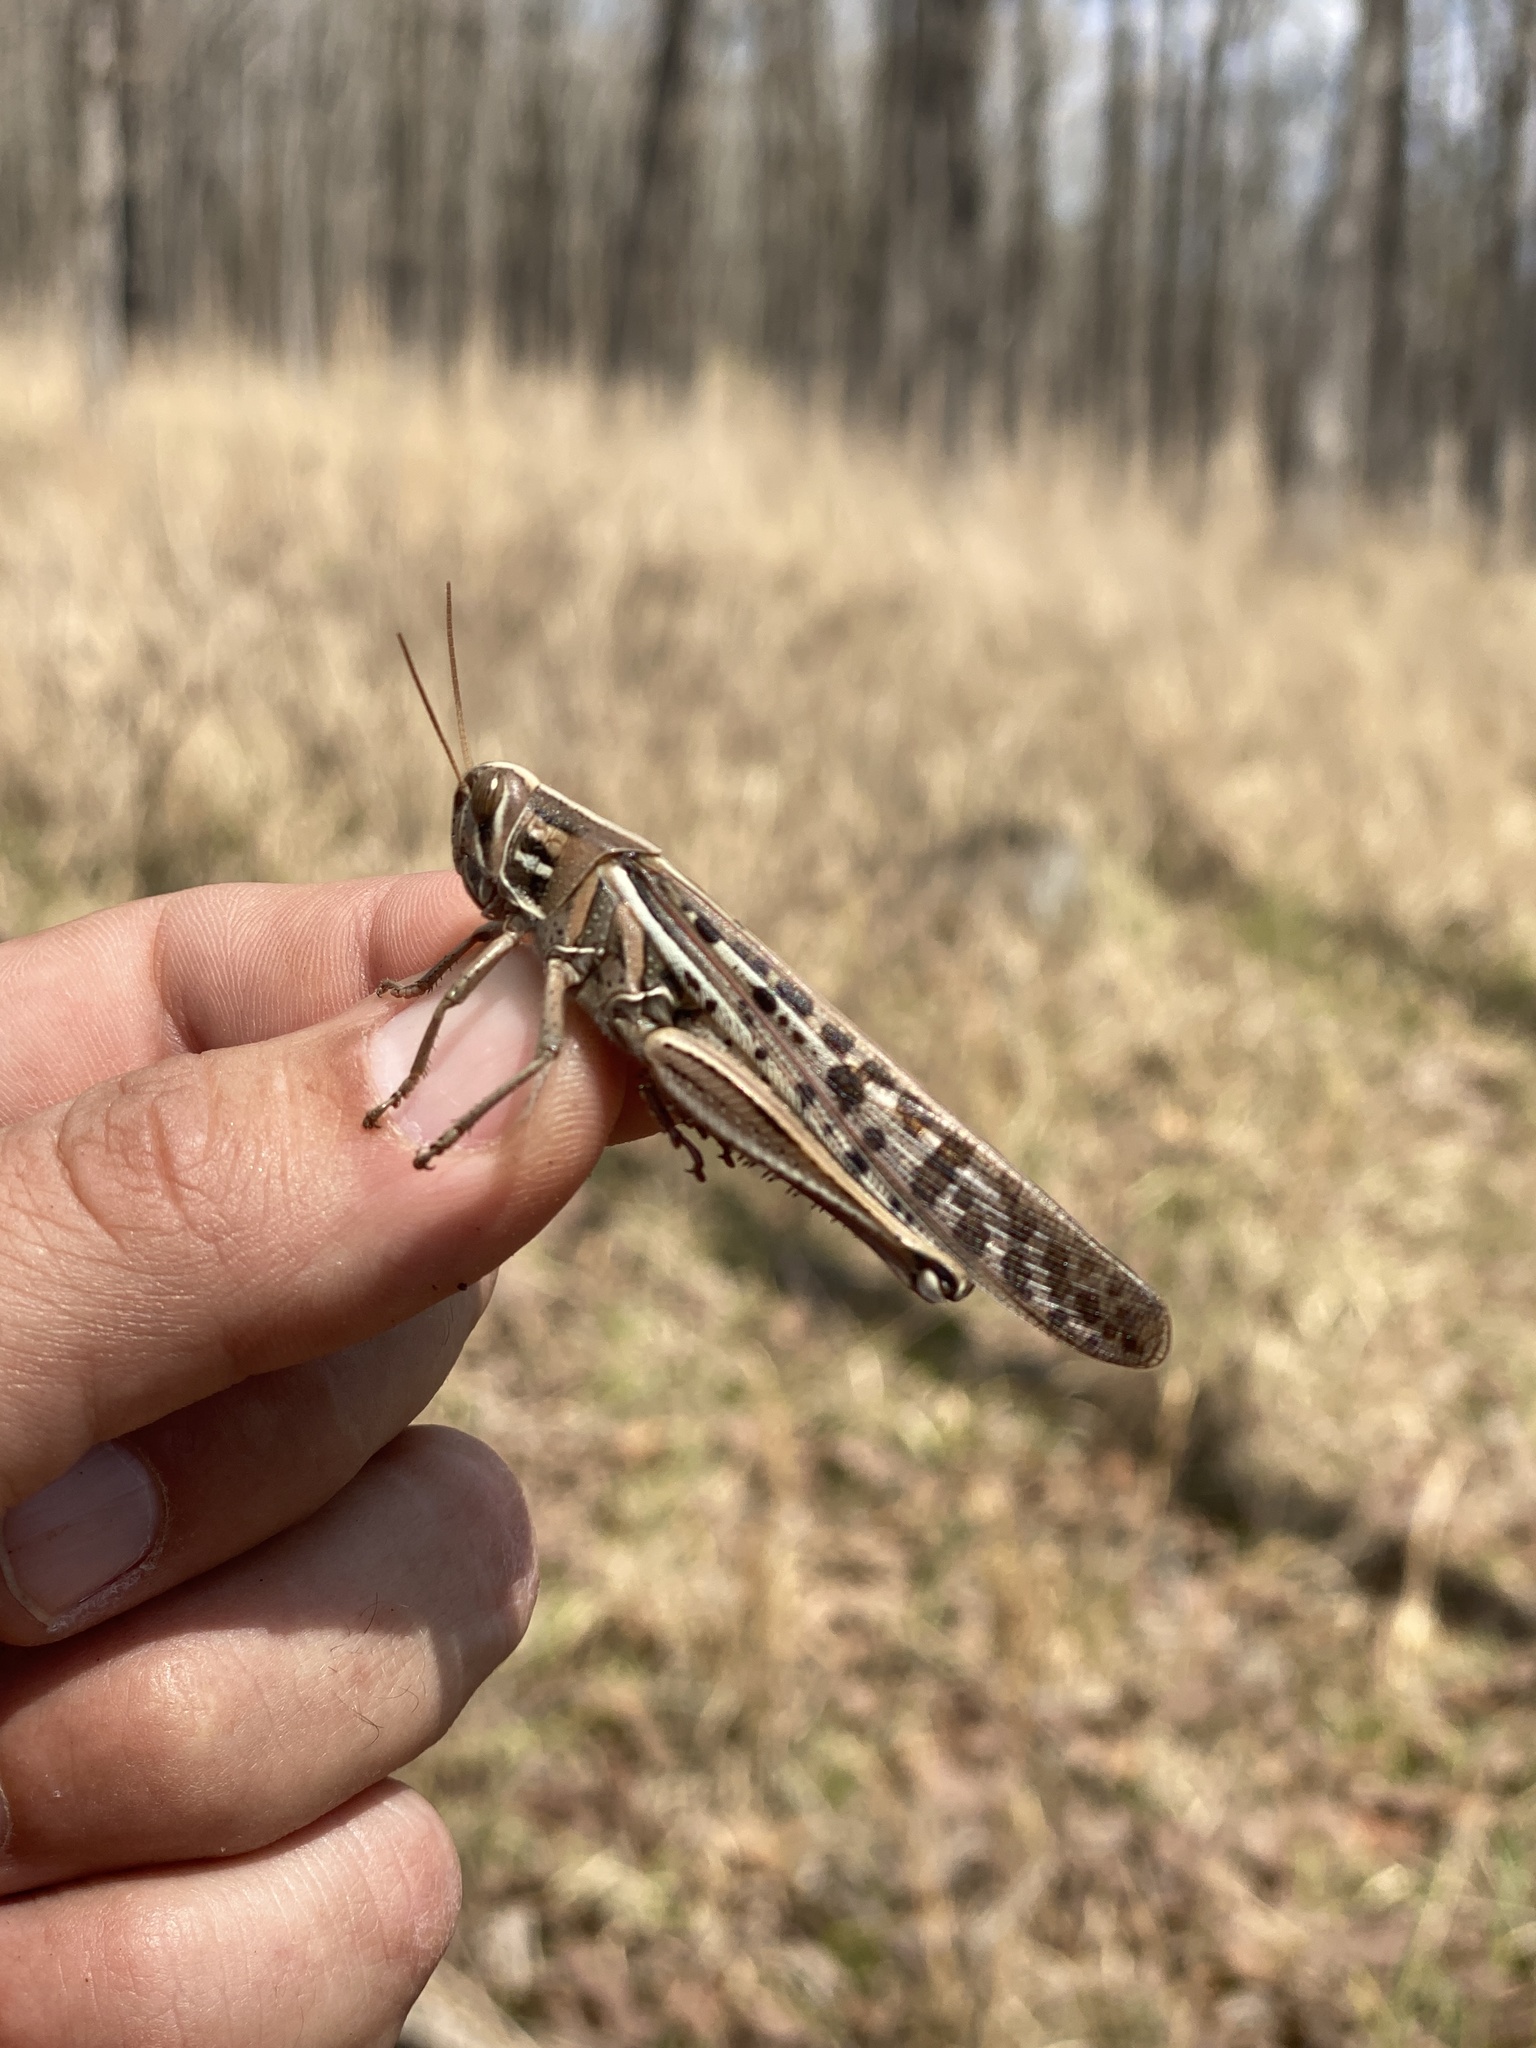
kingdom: Animalia
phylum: Arthropoda
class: Insecta
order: Orthoptera
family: Acrididae
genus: Schistocerca
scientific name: Schistocerca americana
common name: American bird locust
